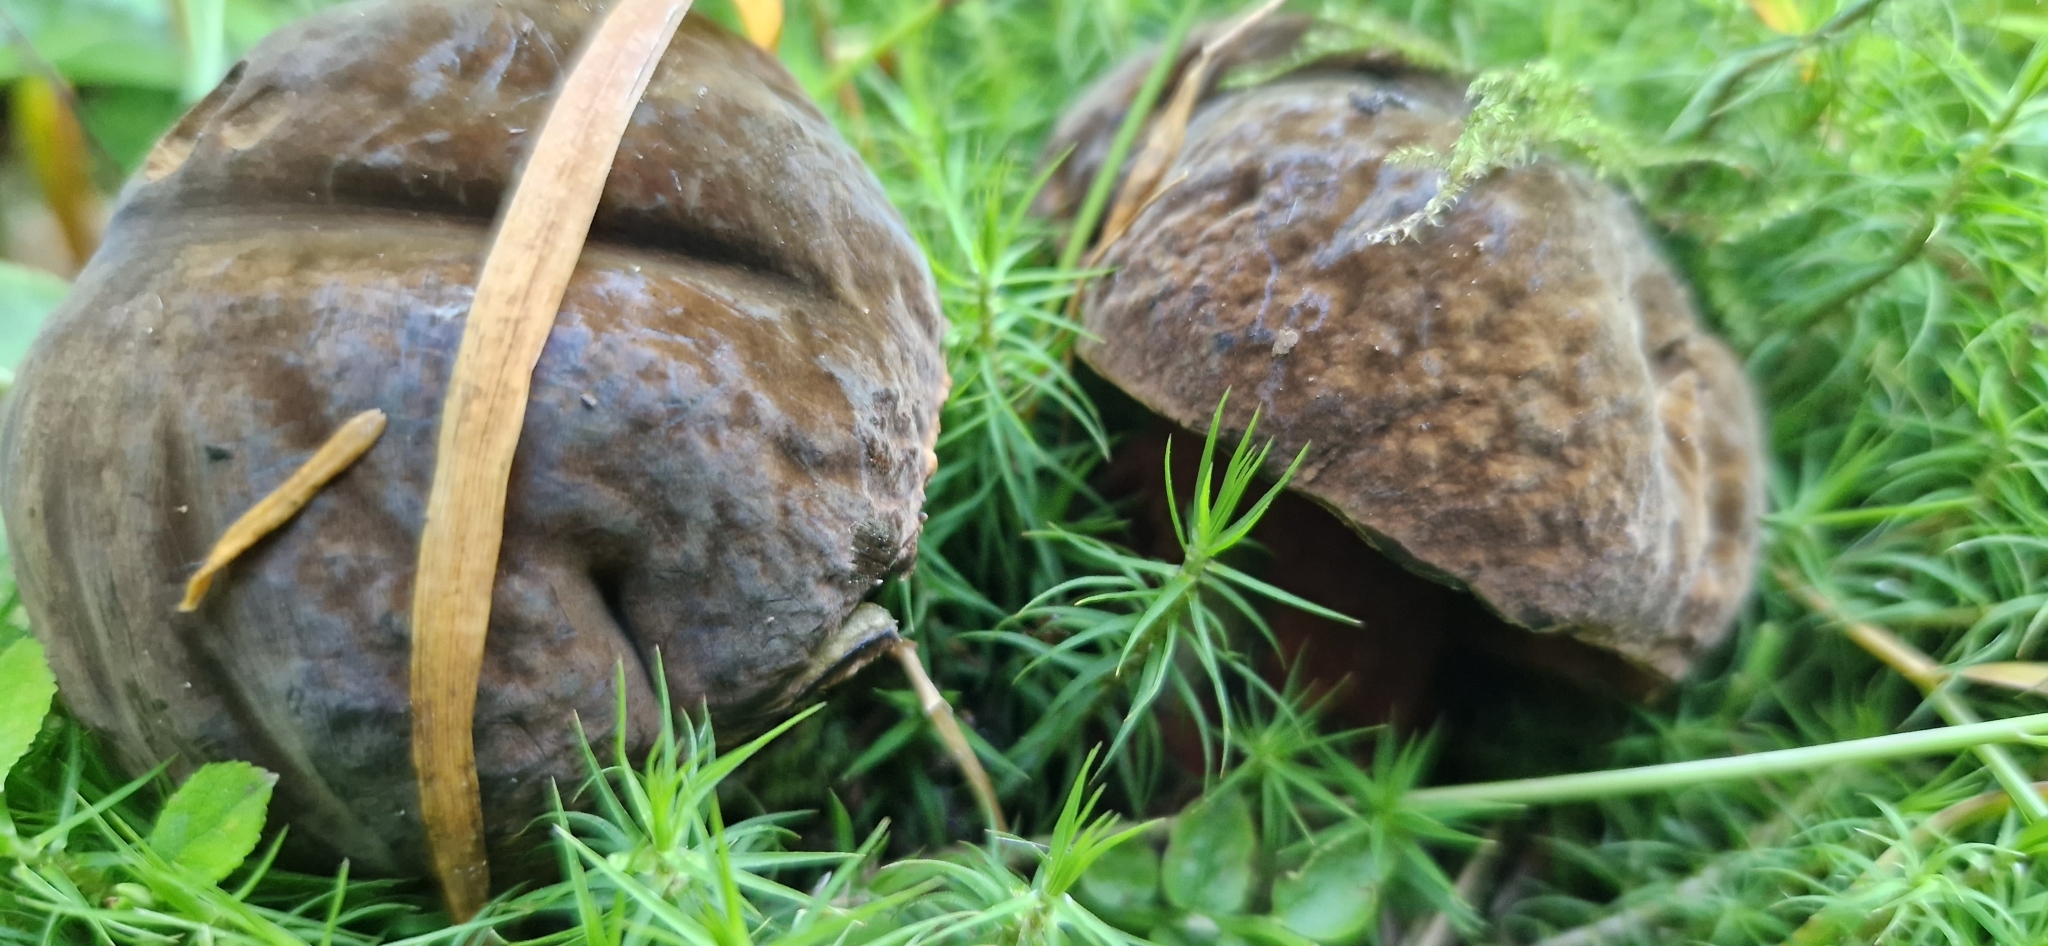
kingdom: Fungi
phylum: Basidiomycota
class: Agaricomycetes
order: Boletales
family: Boletaceae
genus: Neoboletus
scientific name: Neoboletus luridiformis
